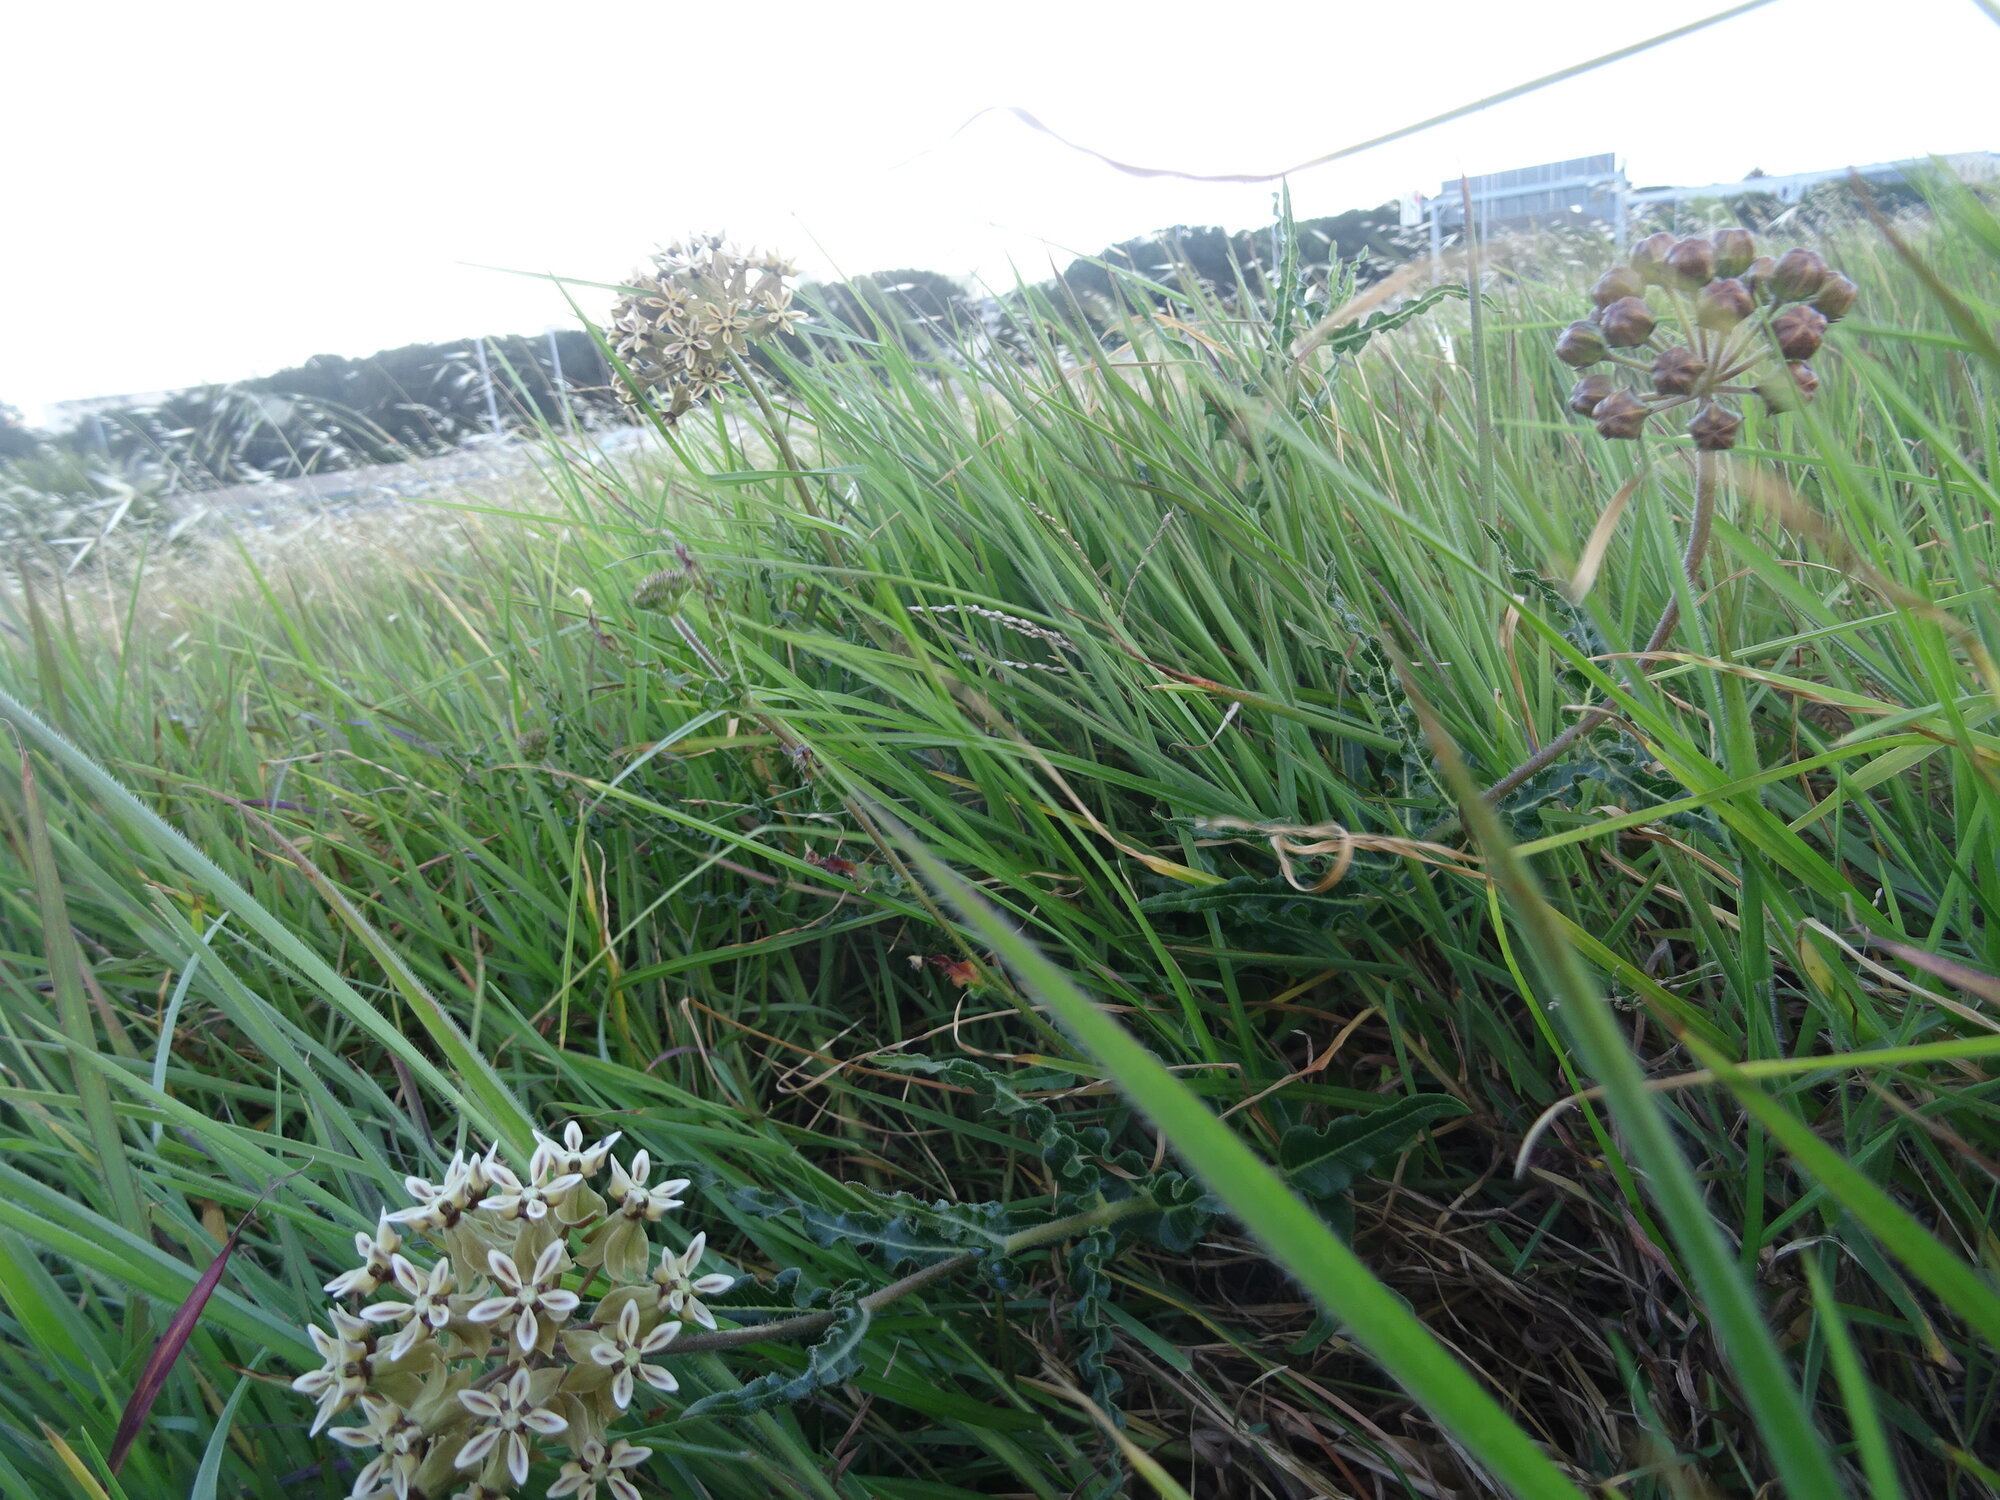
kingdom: Plantae
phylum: Tracheophyta
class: Magnoliopsida
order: Gentianales
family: Apocynaceae
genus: Asclepias
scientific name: Asclepias crispa
